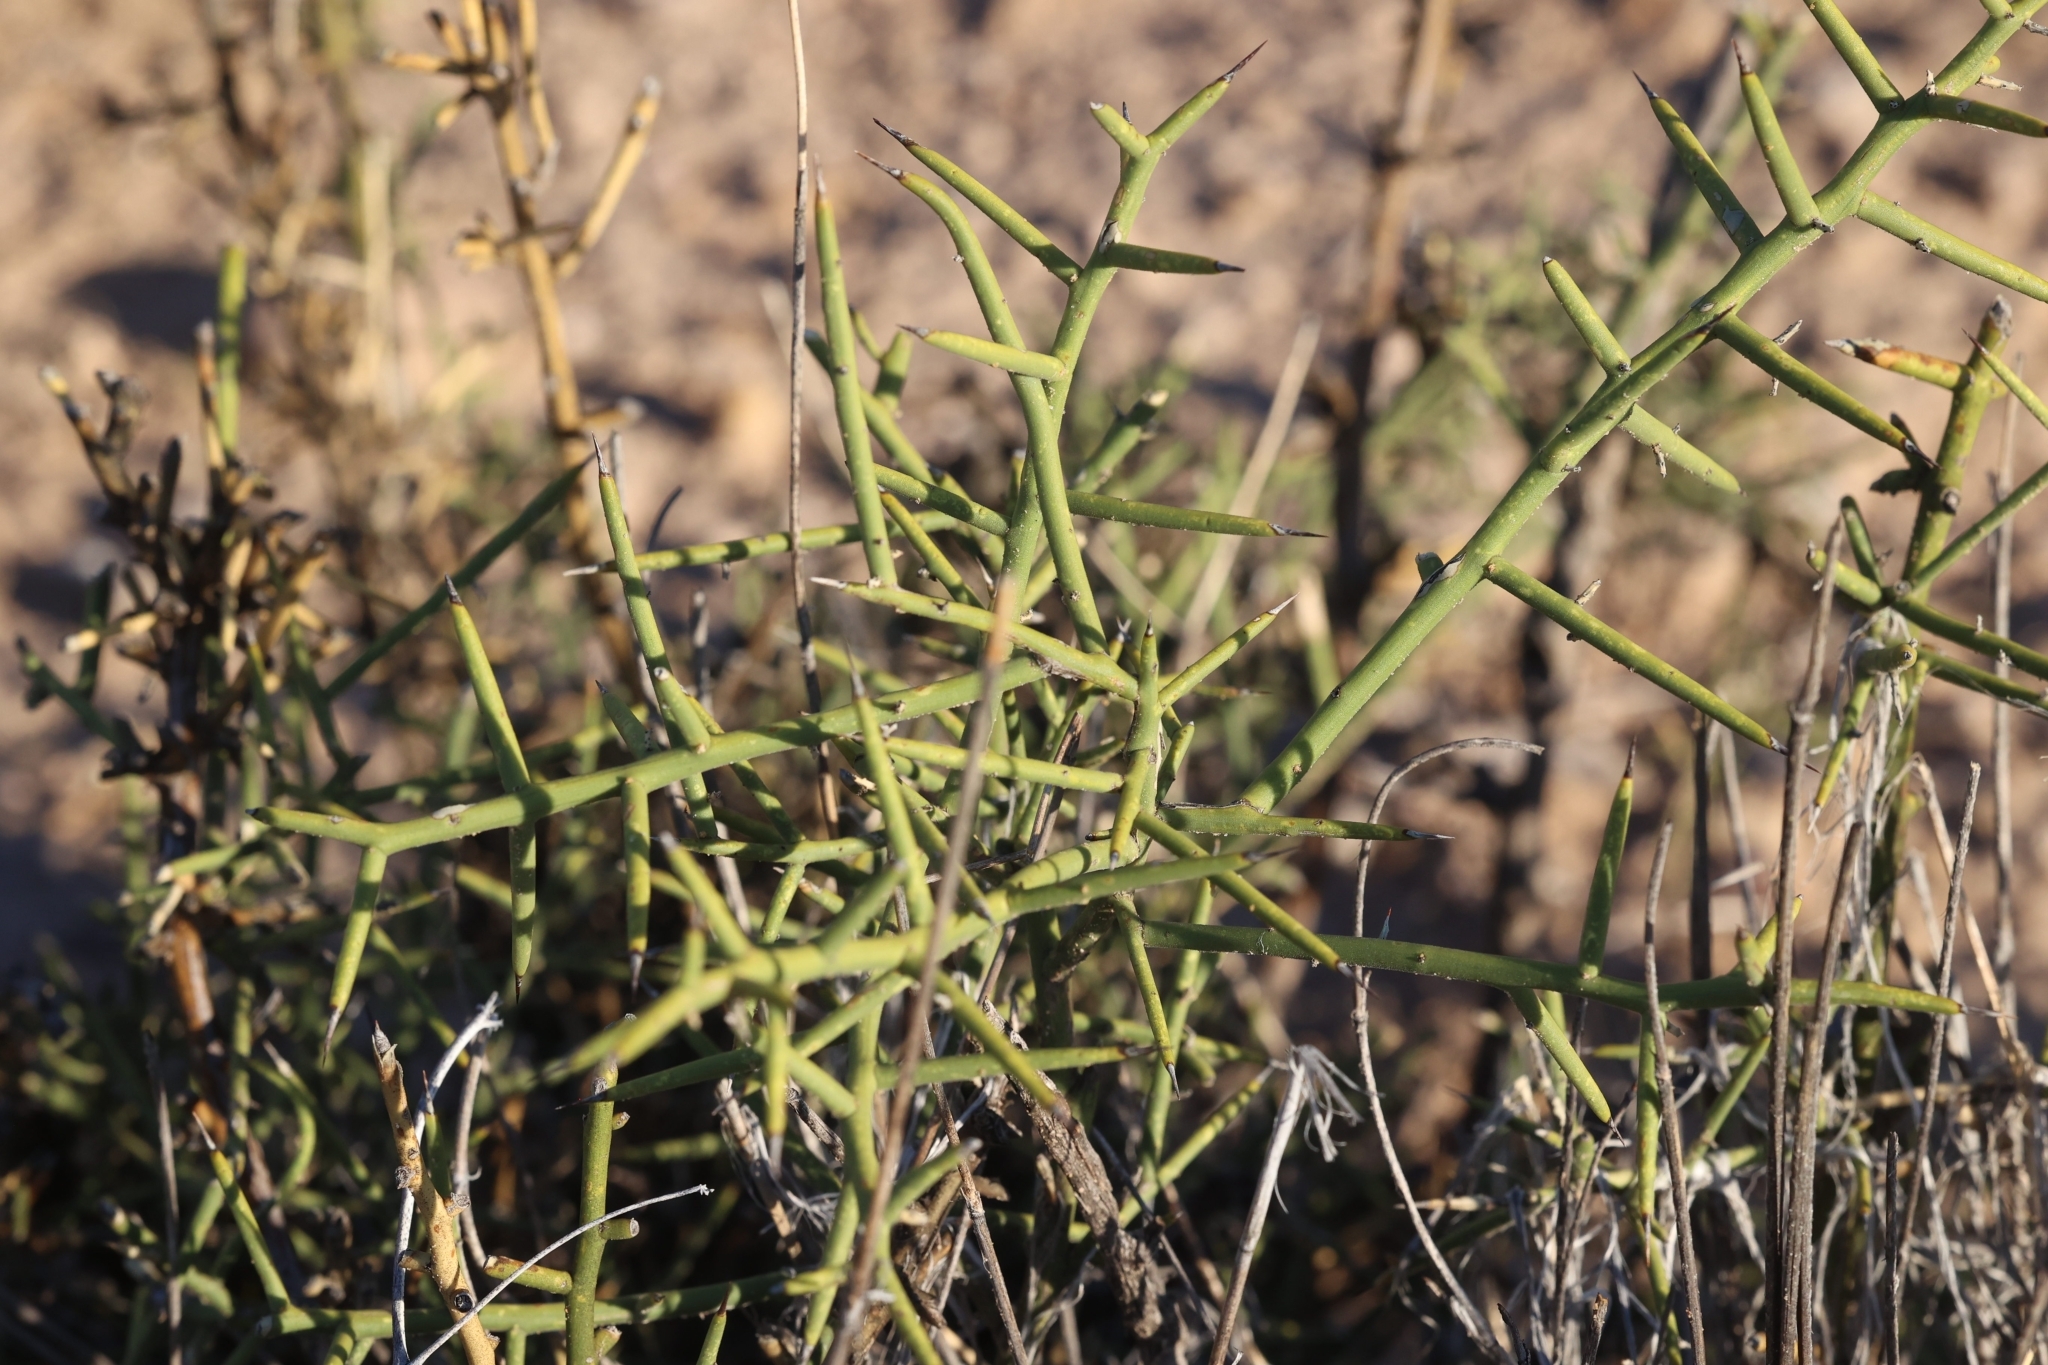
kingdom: Plantae
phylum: Tracheophyta
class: Magnoliopsida
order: Brassicales
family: Koeberliniaceae
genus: Koeberlinia
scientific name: Koeberlinia spinosa
